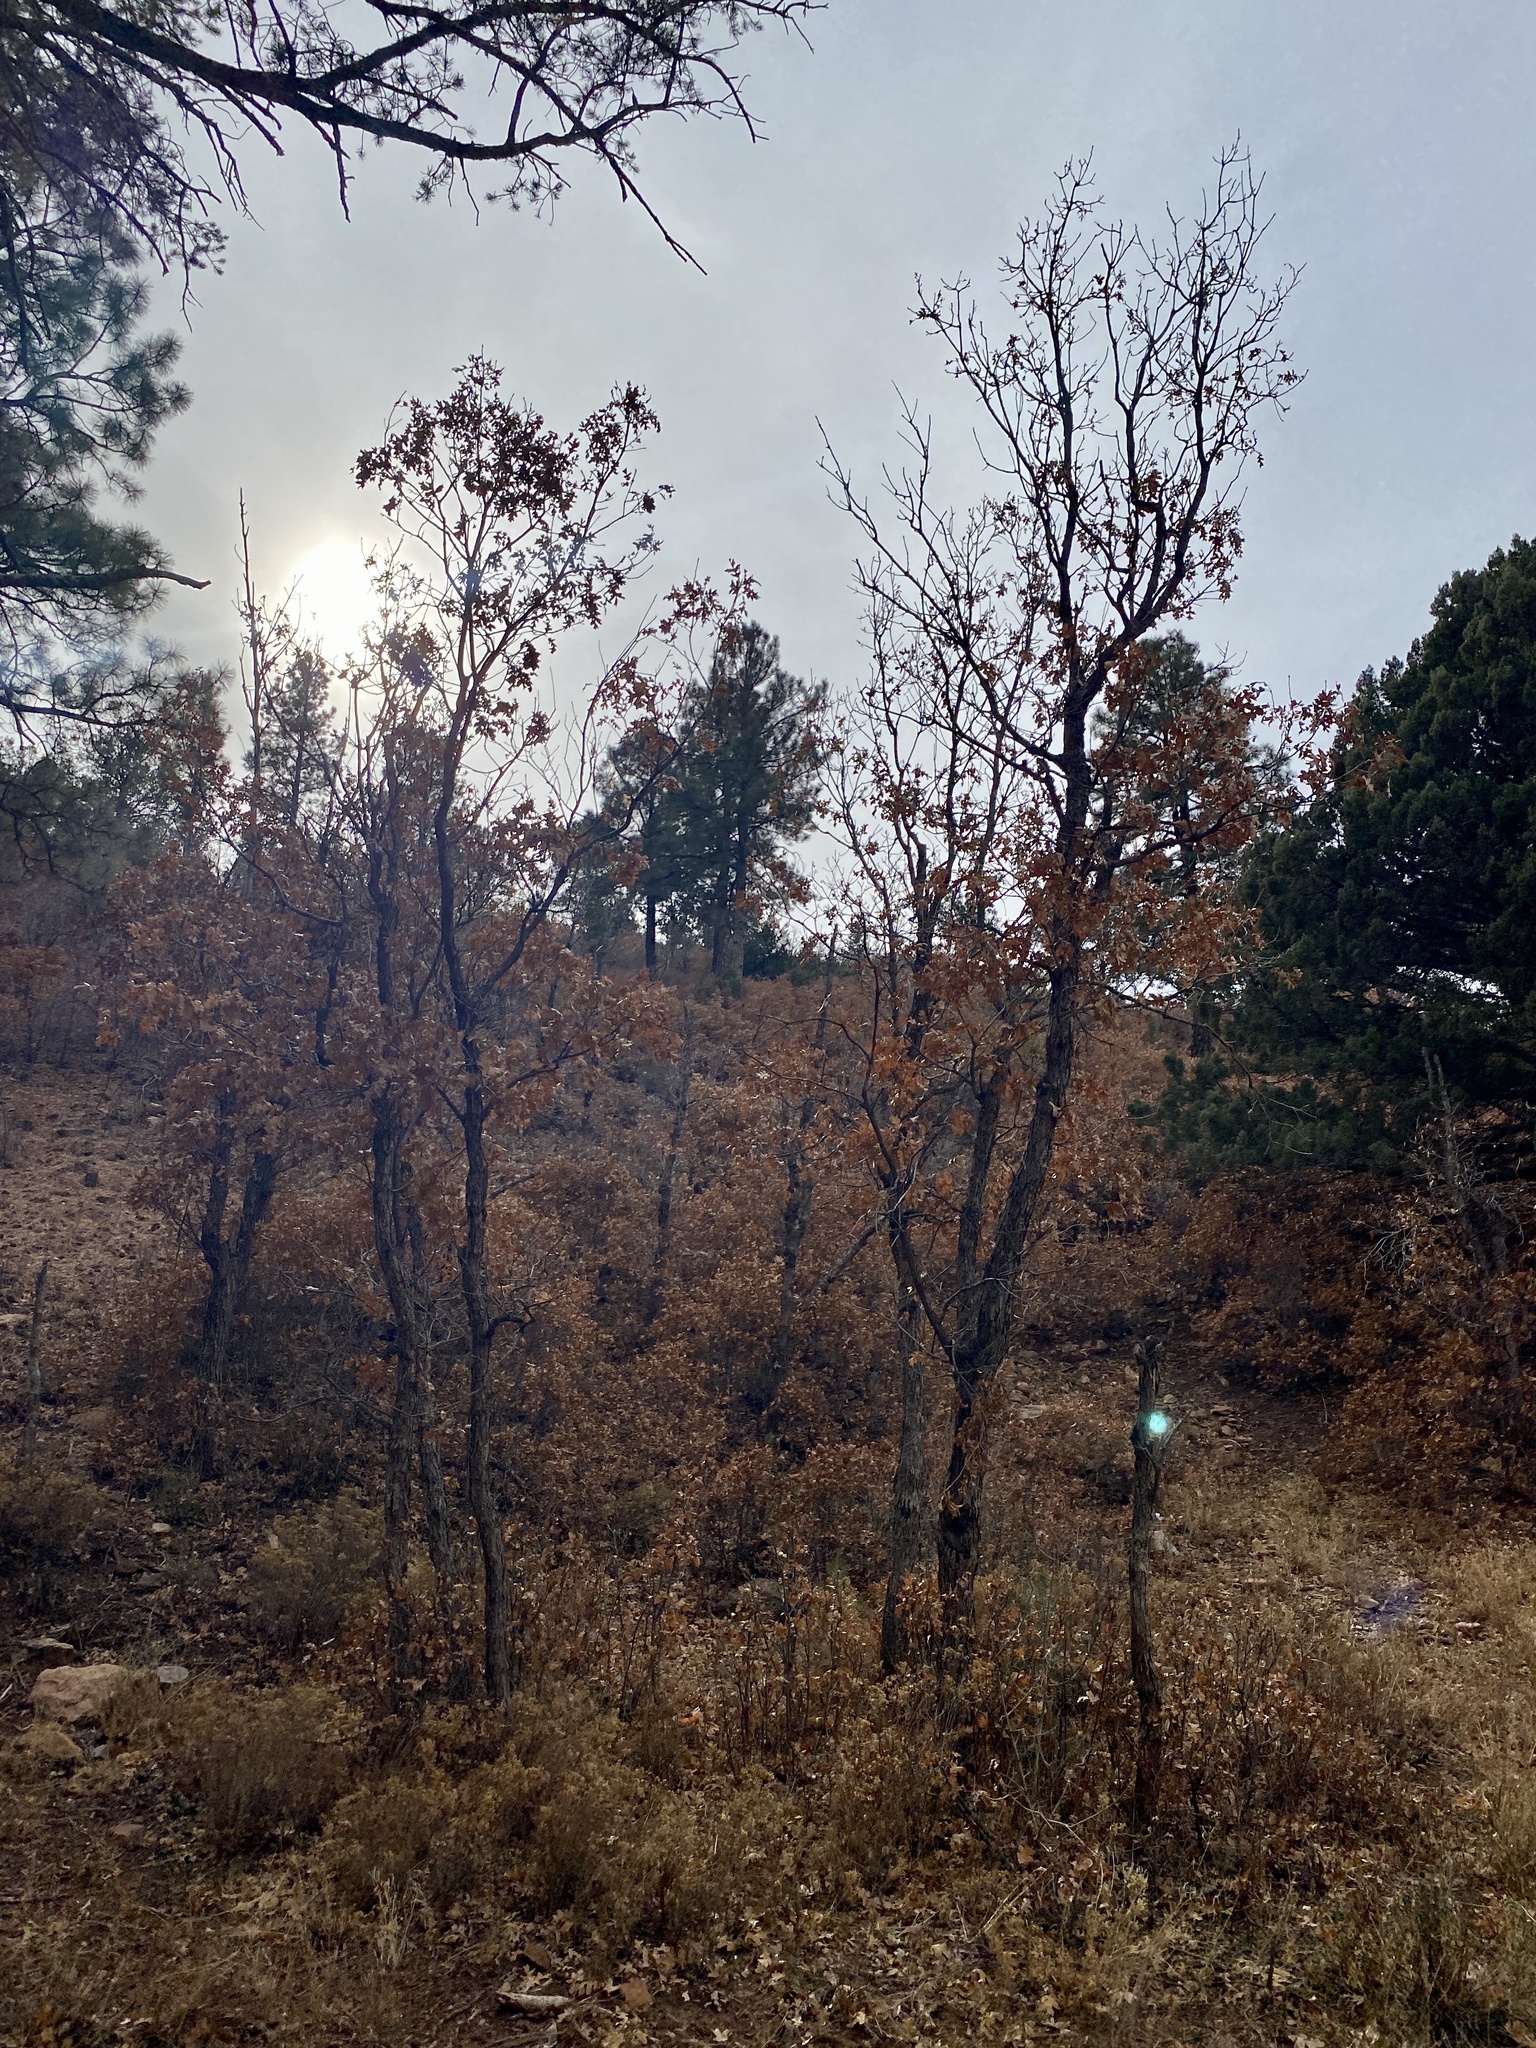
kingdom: Plantae
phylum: Tracheophyta
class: Magnoliopsida
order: Fagales
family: Fagaceae
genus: Quercus
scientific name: Quercus gambelii
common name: Gambel oak
